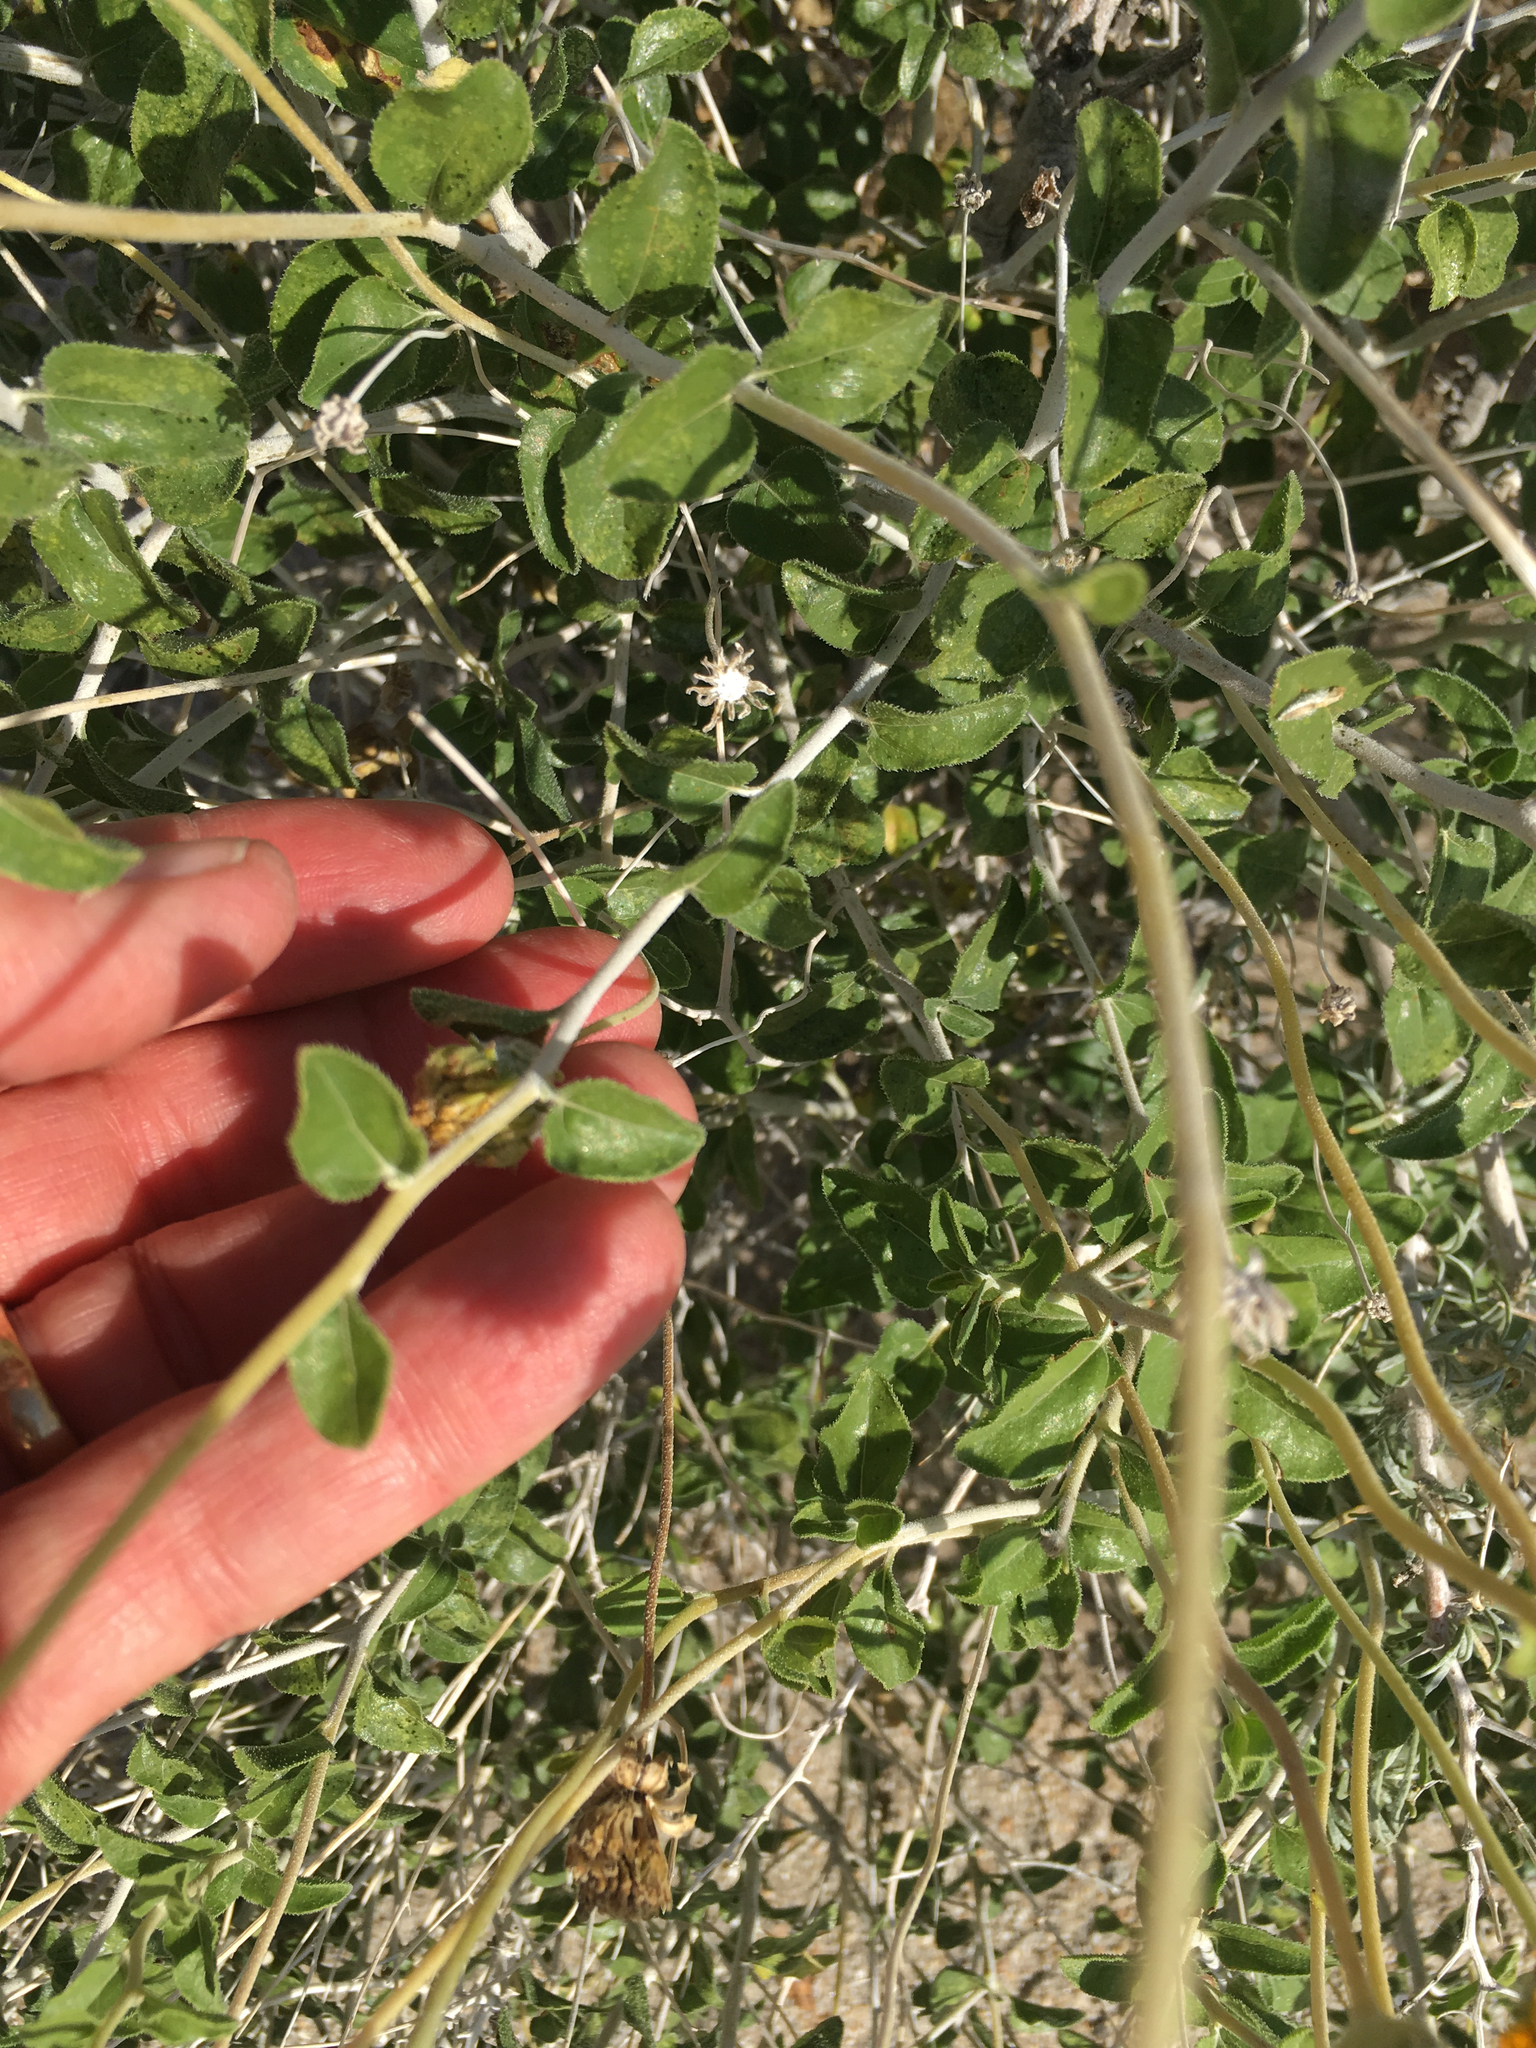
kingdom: Plantae
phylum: Tracheophyta
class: Magnoliopsida
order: Asterales
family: Asteraceae
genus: Encelia
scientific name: Encelia frutescens
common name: Bush encelia
